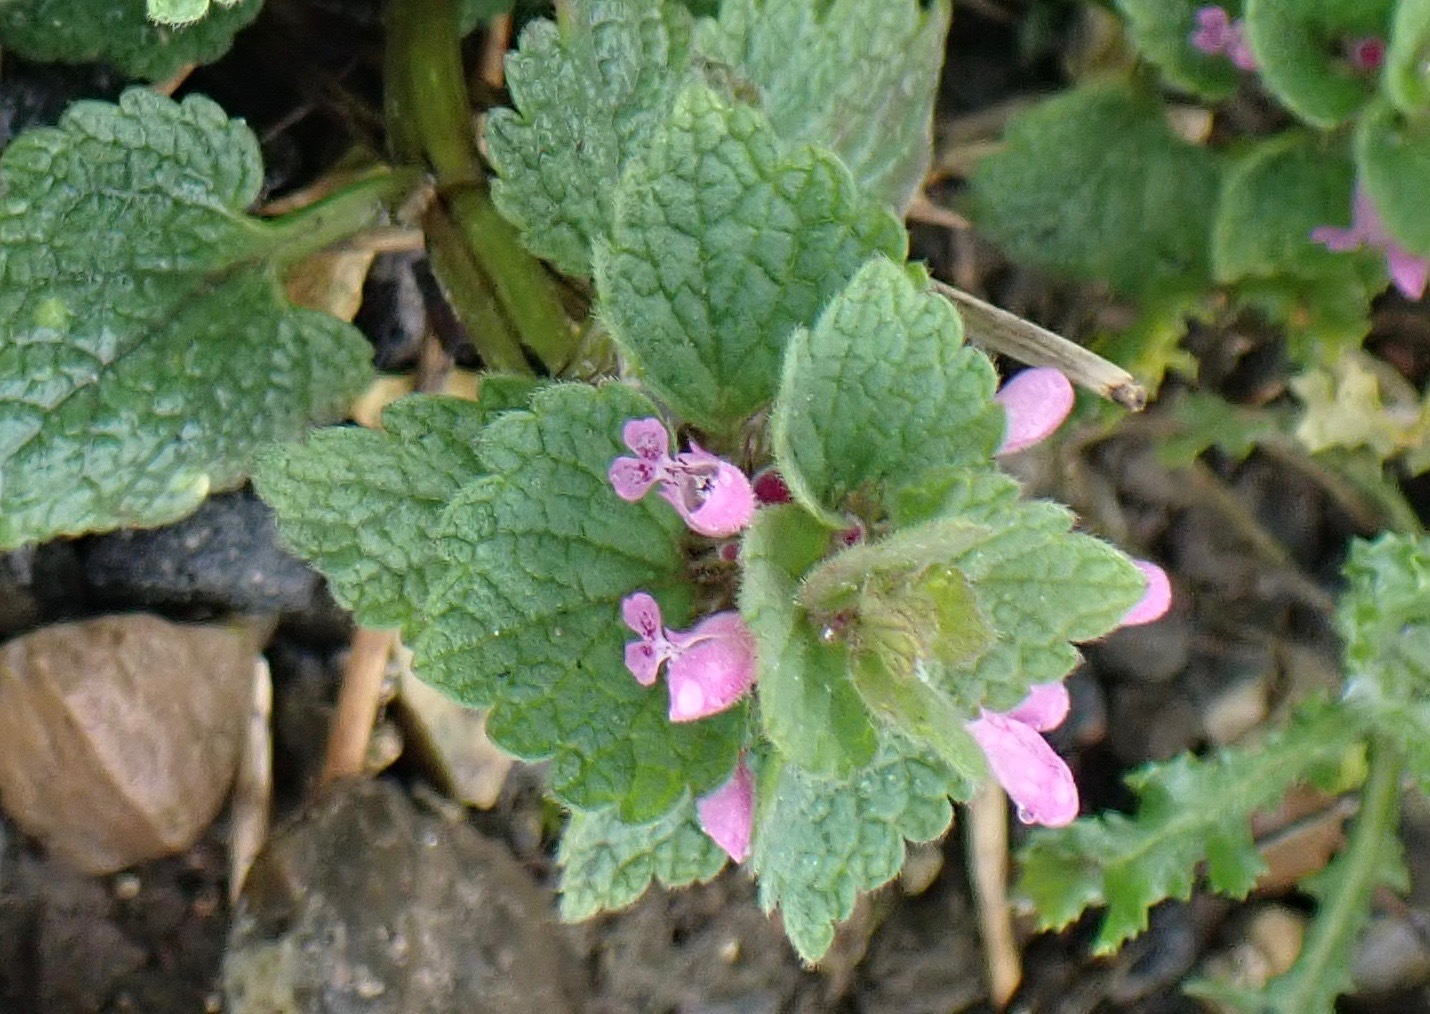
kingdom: Plantae
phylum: Tracheophyta
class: Magnoliopsida
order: Lamiales
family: Lamiaceae
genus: Lamium
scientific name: Lamium purpureum
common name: Red dead-nettle
